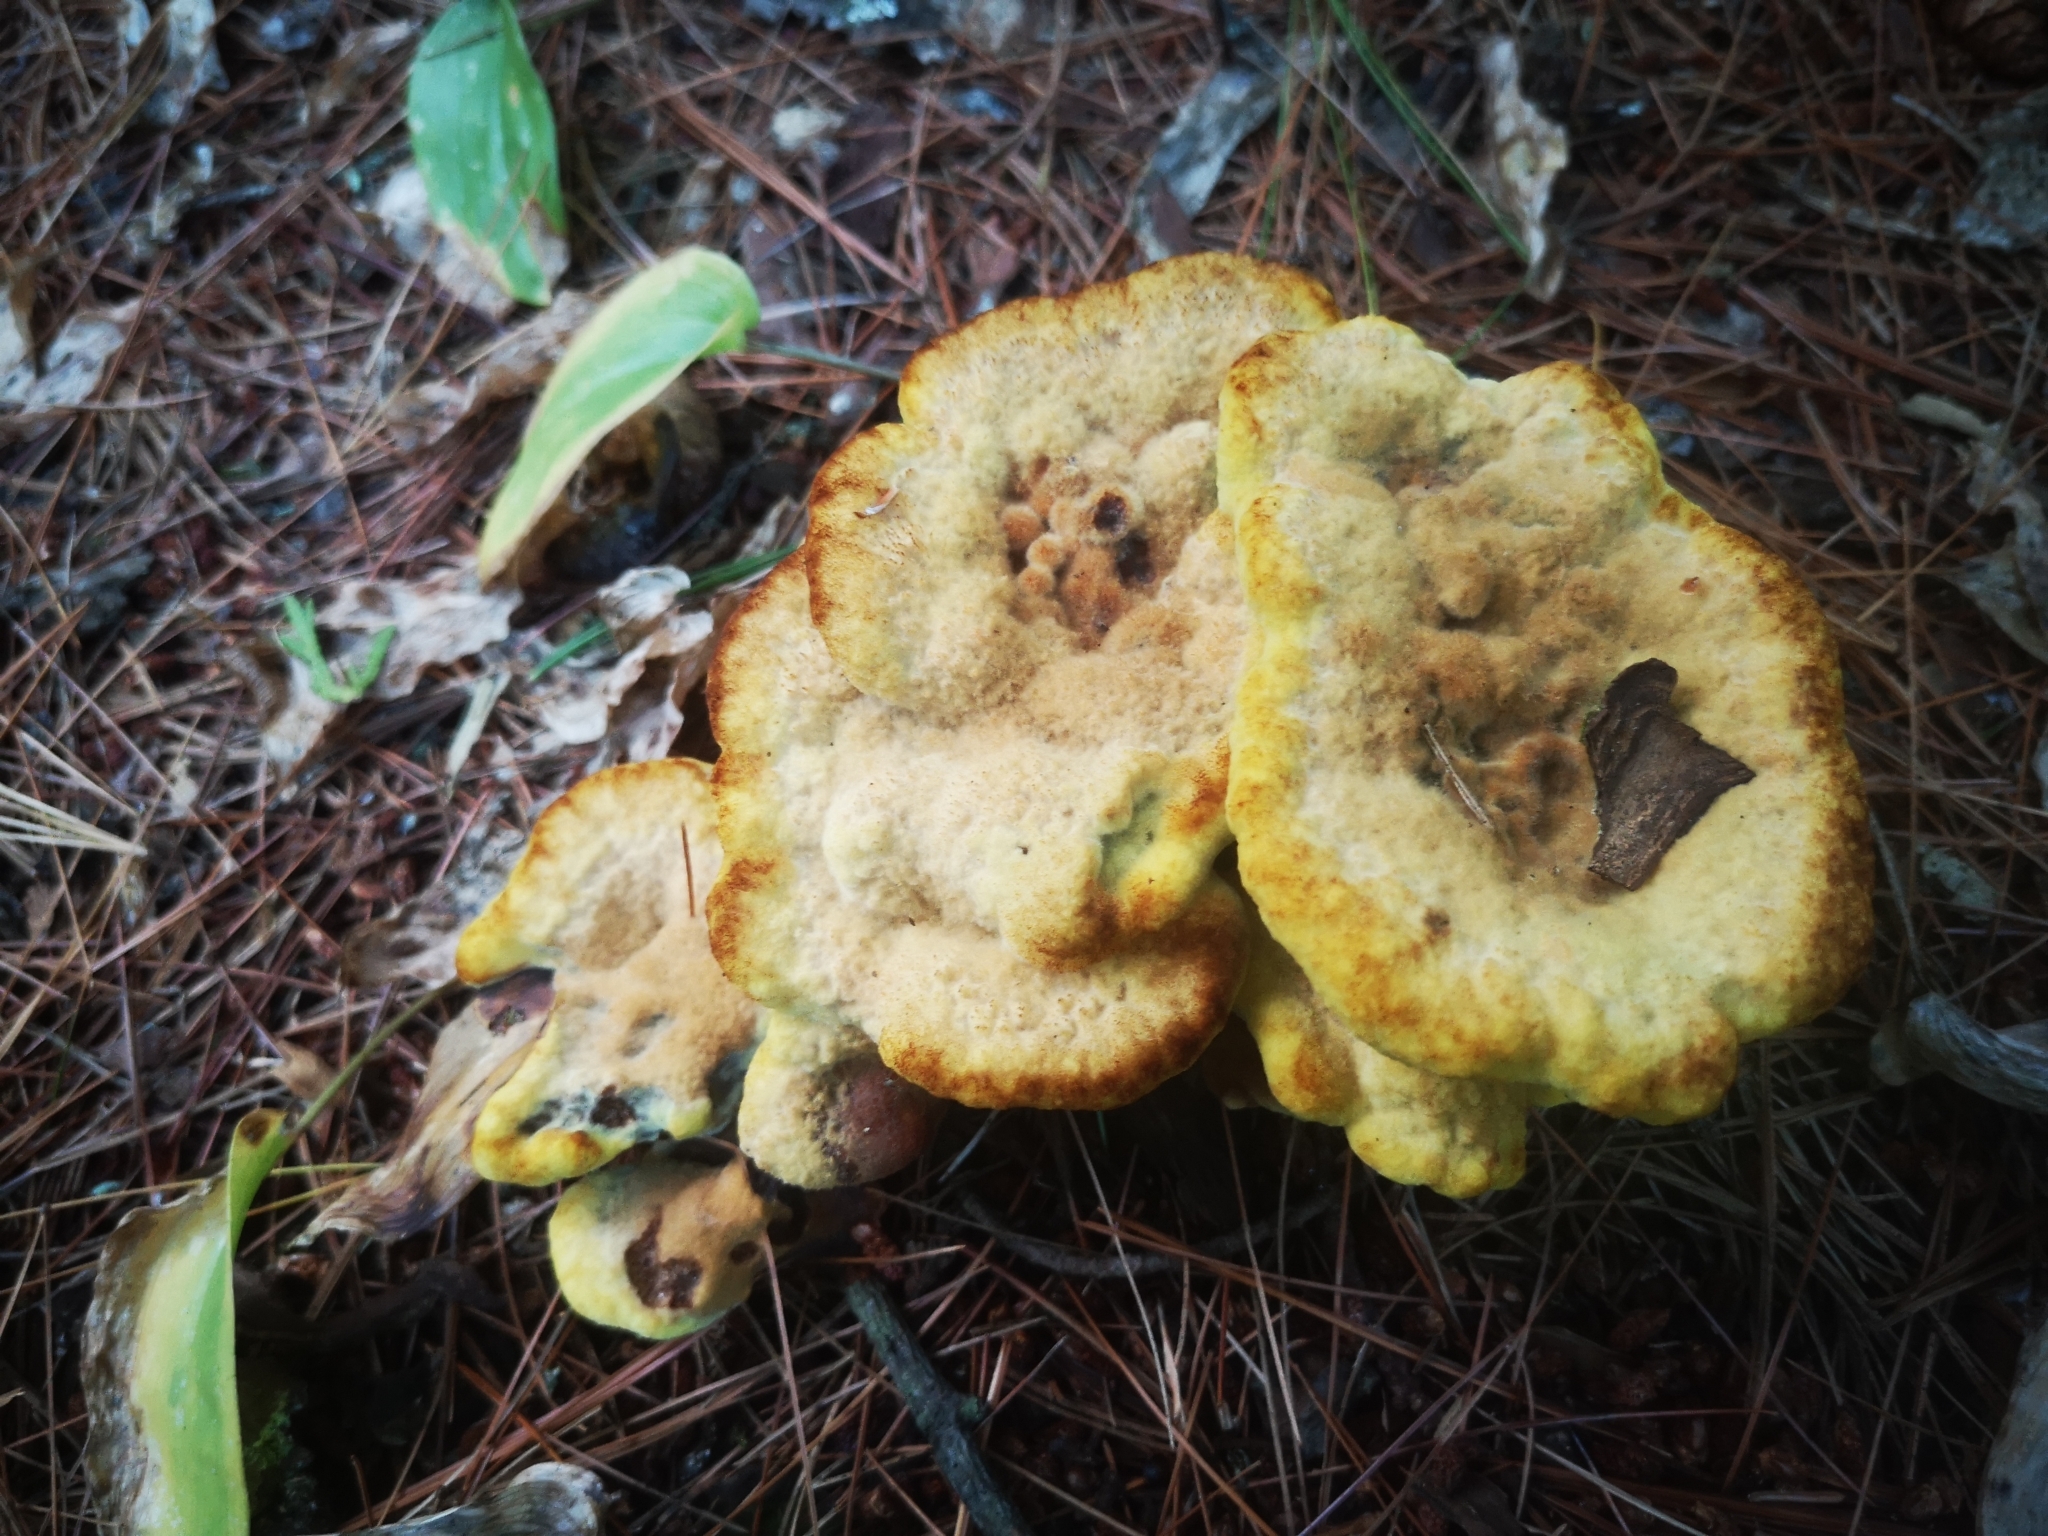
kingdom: Fungi
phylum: Basidiomycota
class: Agaricomycetes
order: Polyporales
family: Laetiporaceae
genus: Phaeolus
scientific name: Phaeolus schweinitzii
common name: Dyer's mazegill
